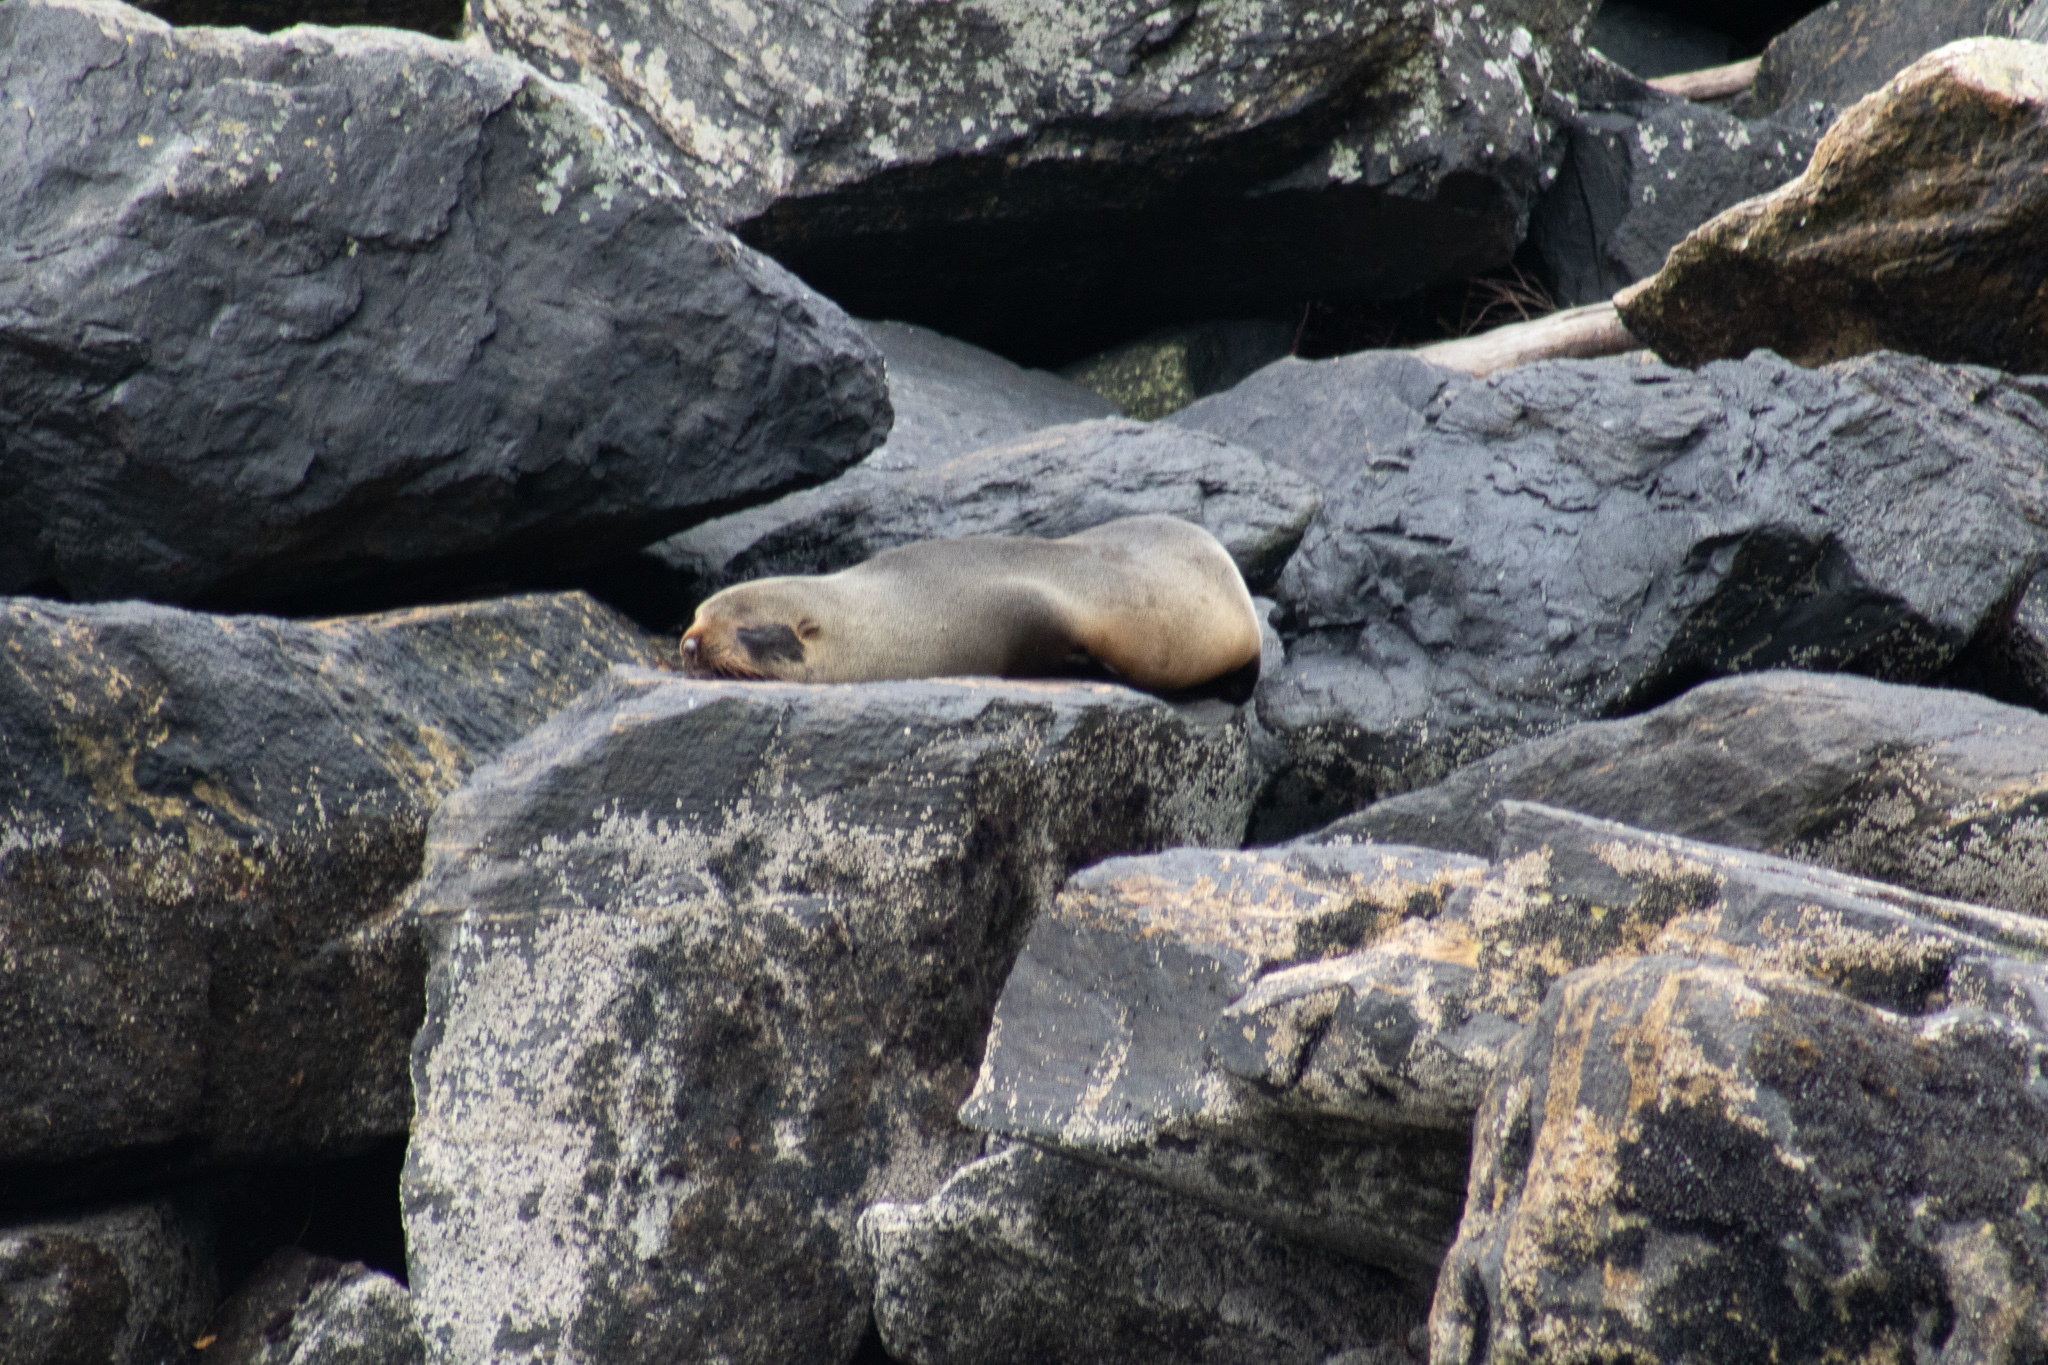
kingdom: Animalia
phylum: Chordata
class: Mammalia
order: Carnivora
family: Otariidae
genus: Arctocephalus
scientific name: Arctocephalus forsteri
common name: New zealand fur seal
